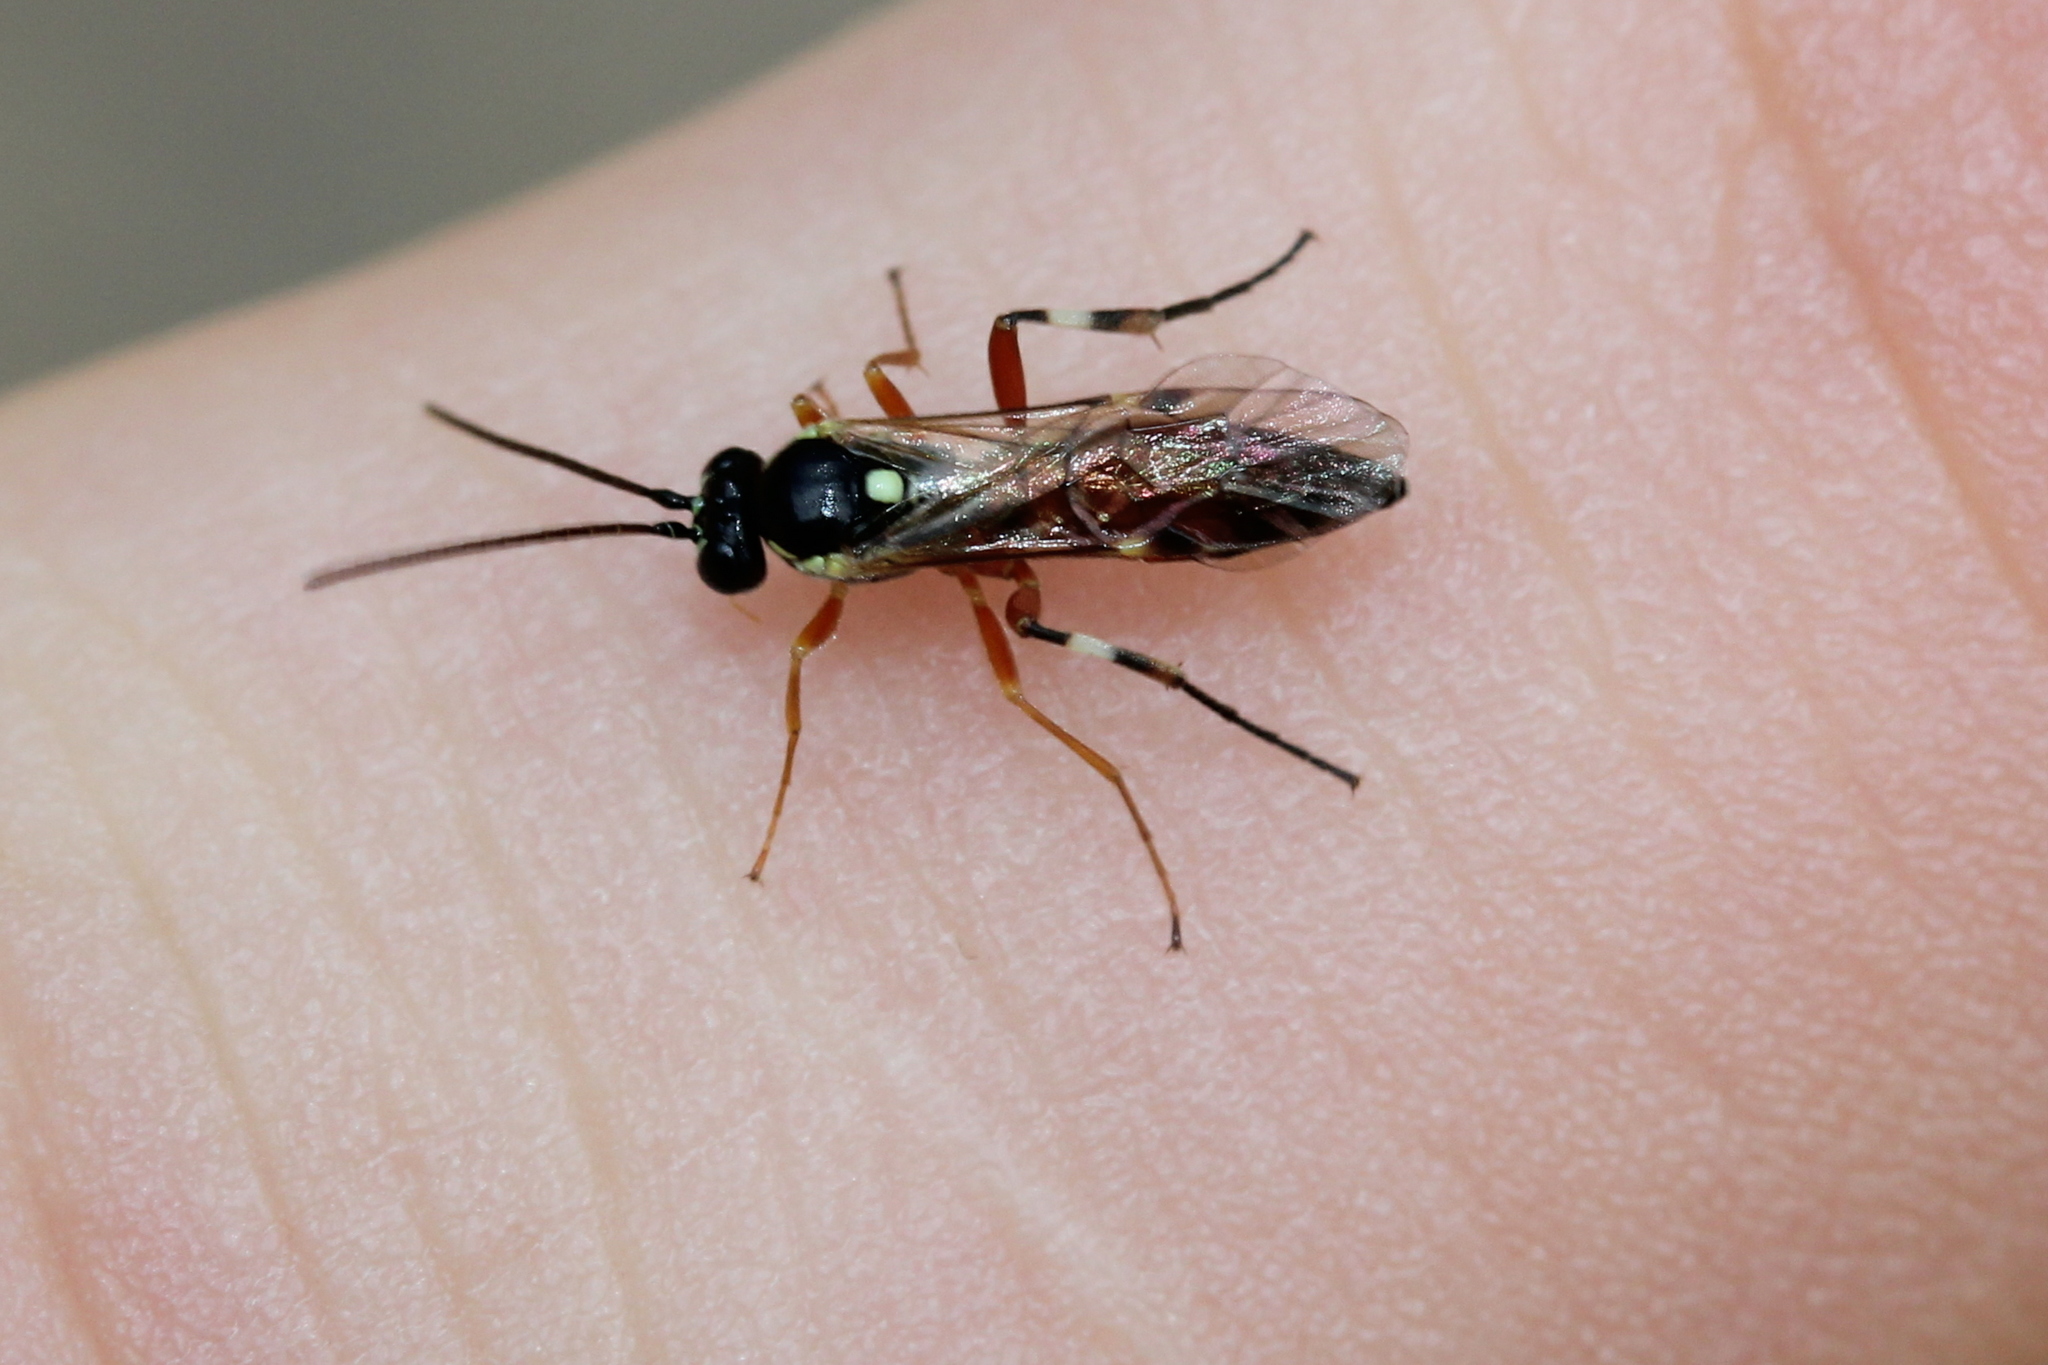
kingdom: Animalia
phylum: Arthropoda
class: Insecta
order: Hymenoptera
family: Ichneumonidae
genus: Diplazon
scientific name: Diplazon laetatorius
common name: Parasitoid wasp
